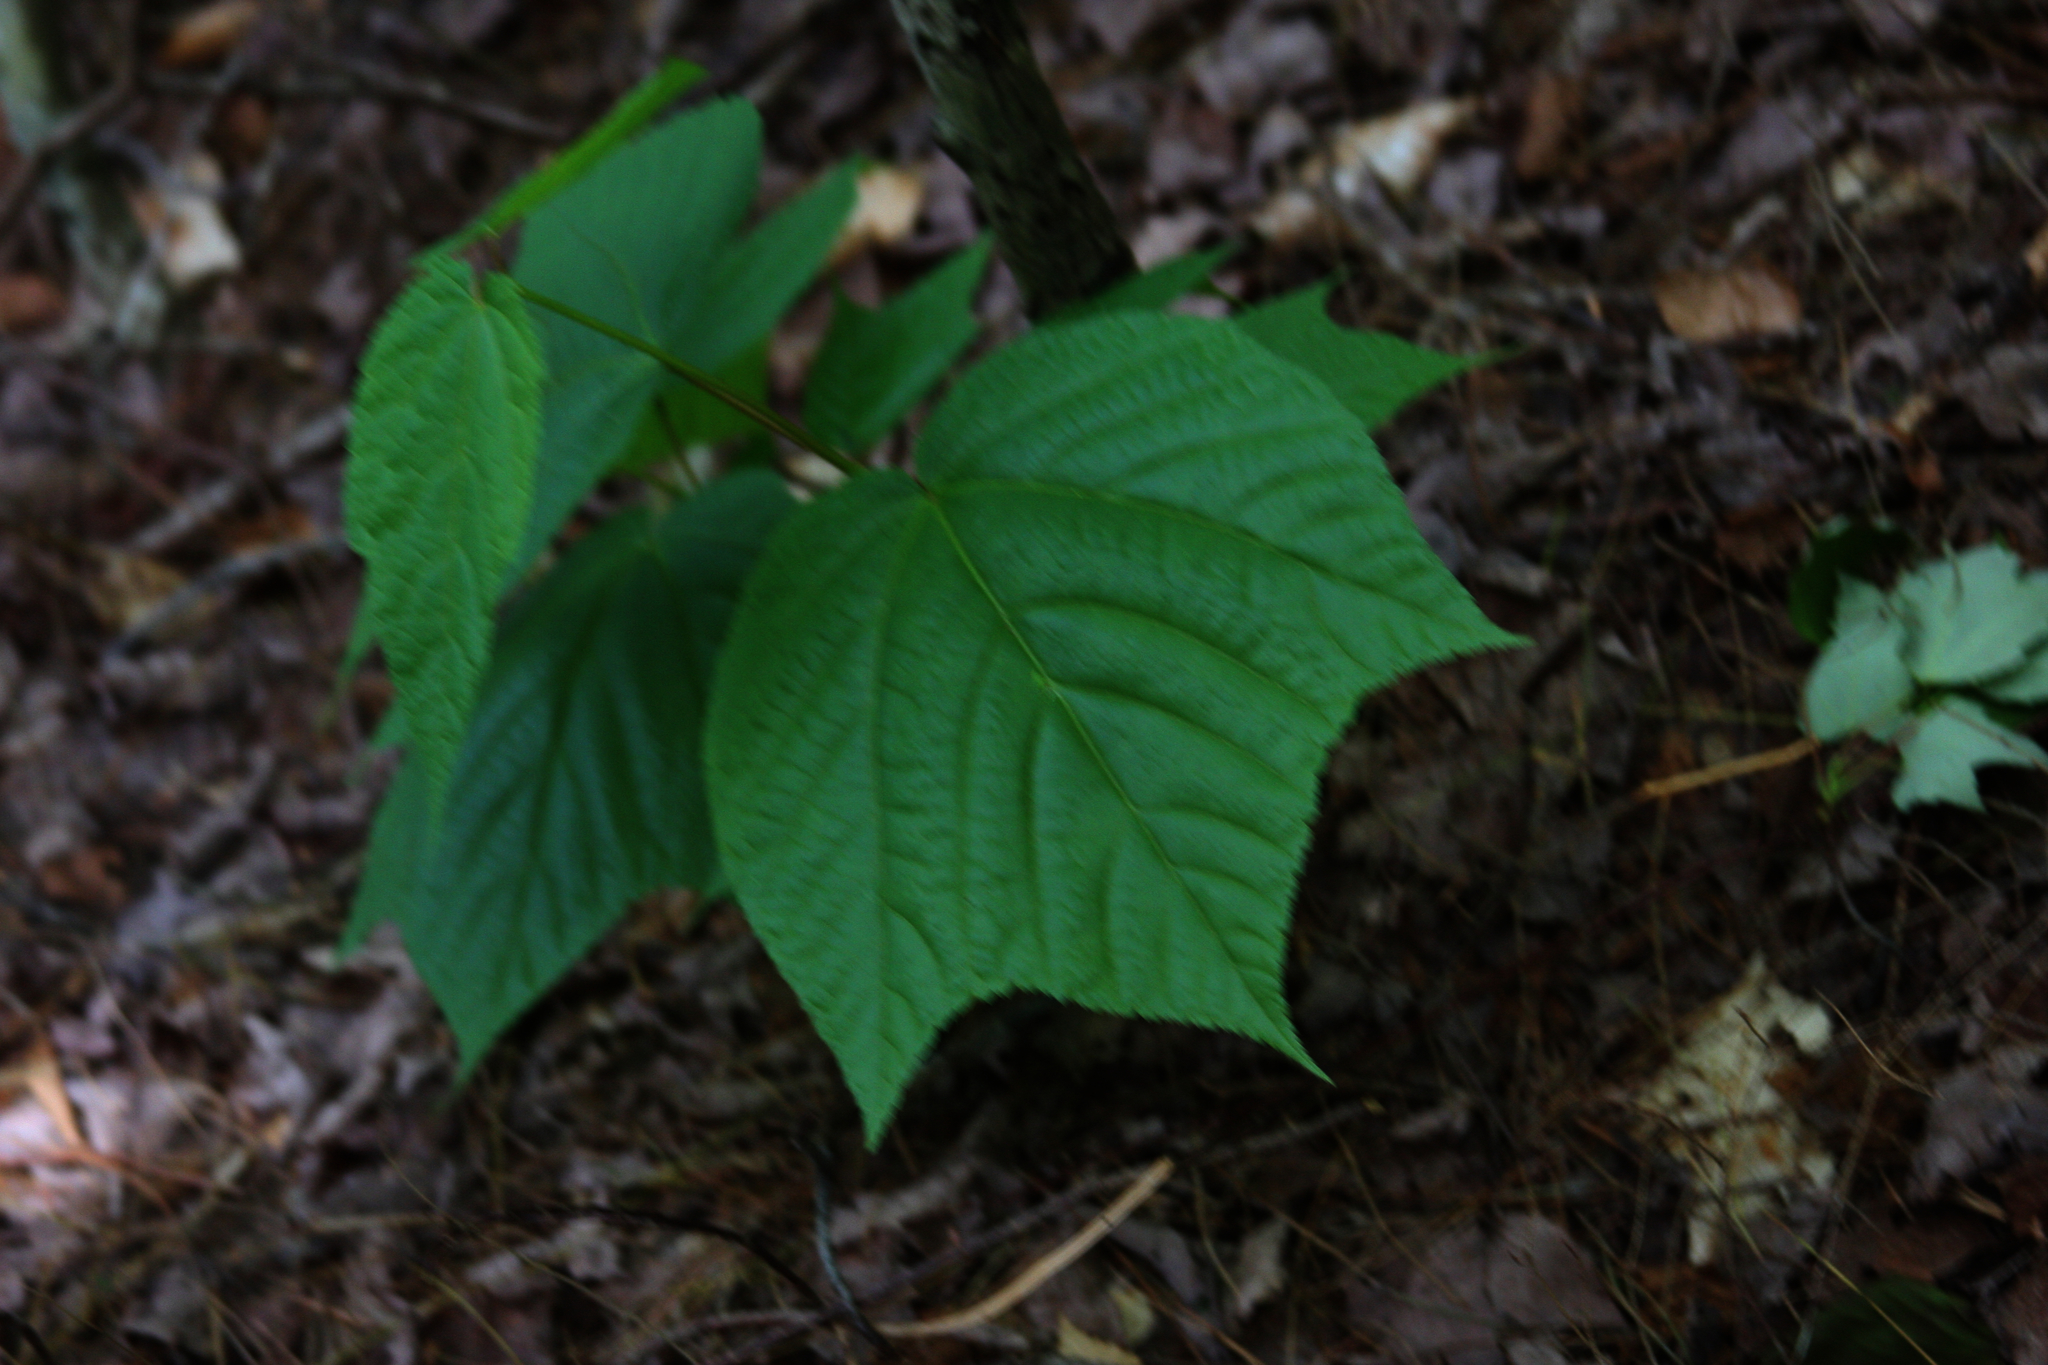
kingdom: Plantae
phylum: Tracheophyta
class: Magnoliopsida
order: Sapindales
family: Sapindaceae
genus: Acer
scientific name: Acer pensylvanicum
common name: Moosewood
